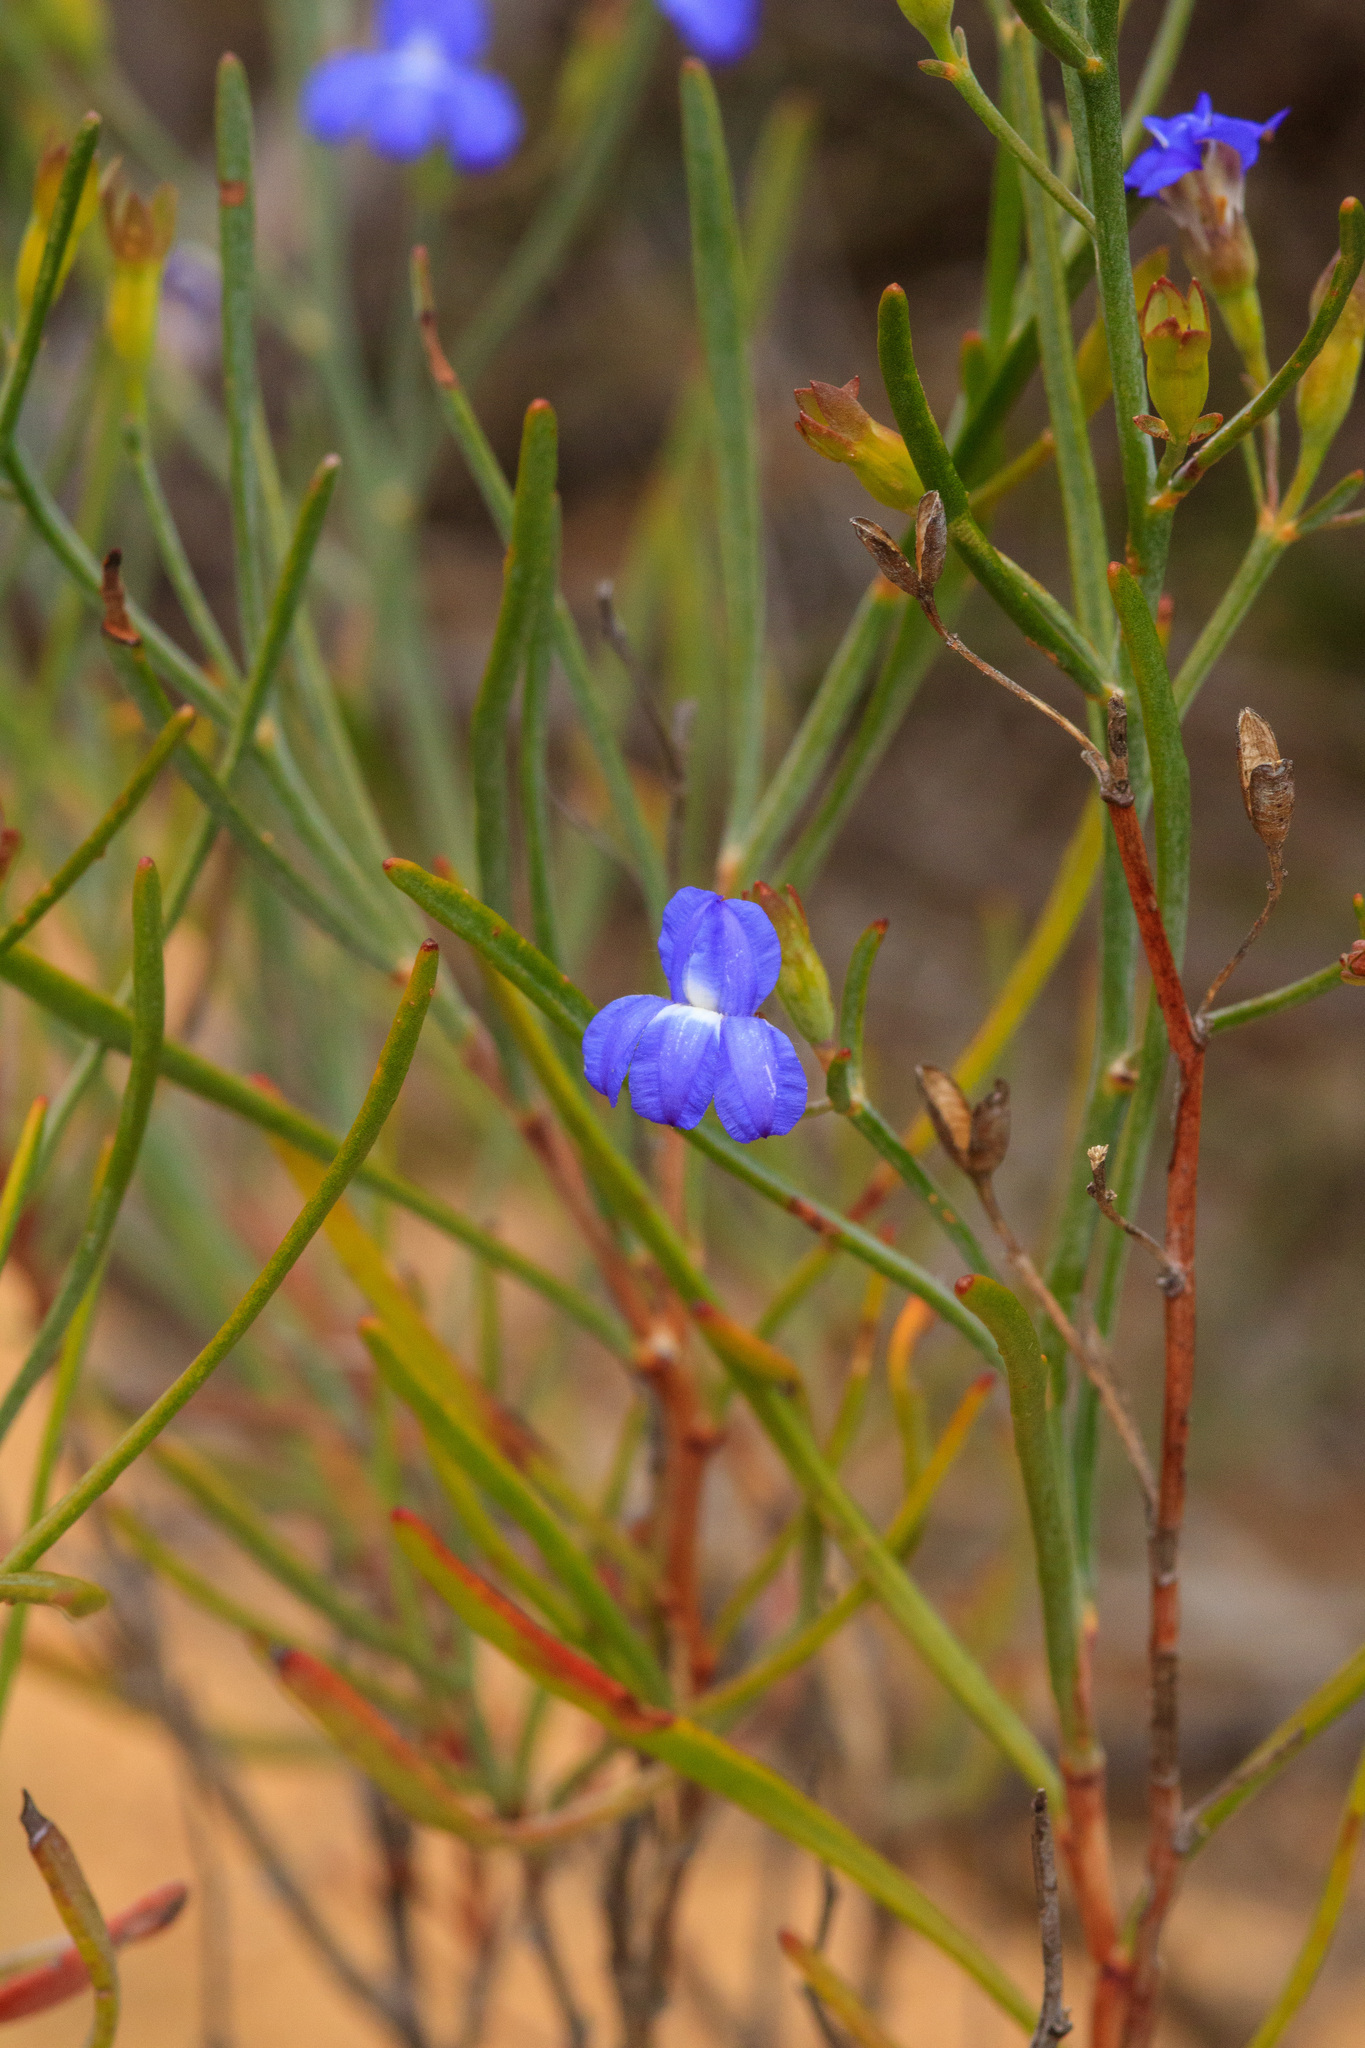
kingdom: Plantae
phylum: Tracheophyta
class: Magnoliopsida
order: Asterales
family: Goodeniaceae
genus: Goodenia
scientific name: Goodenia hassallii
